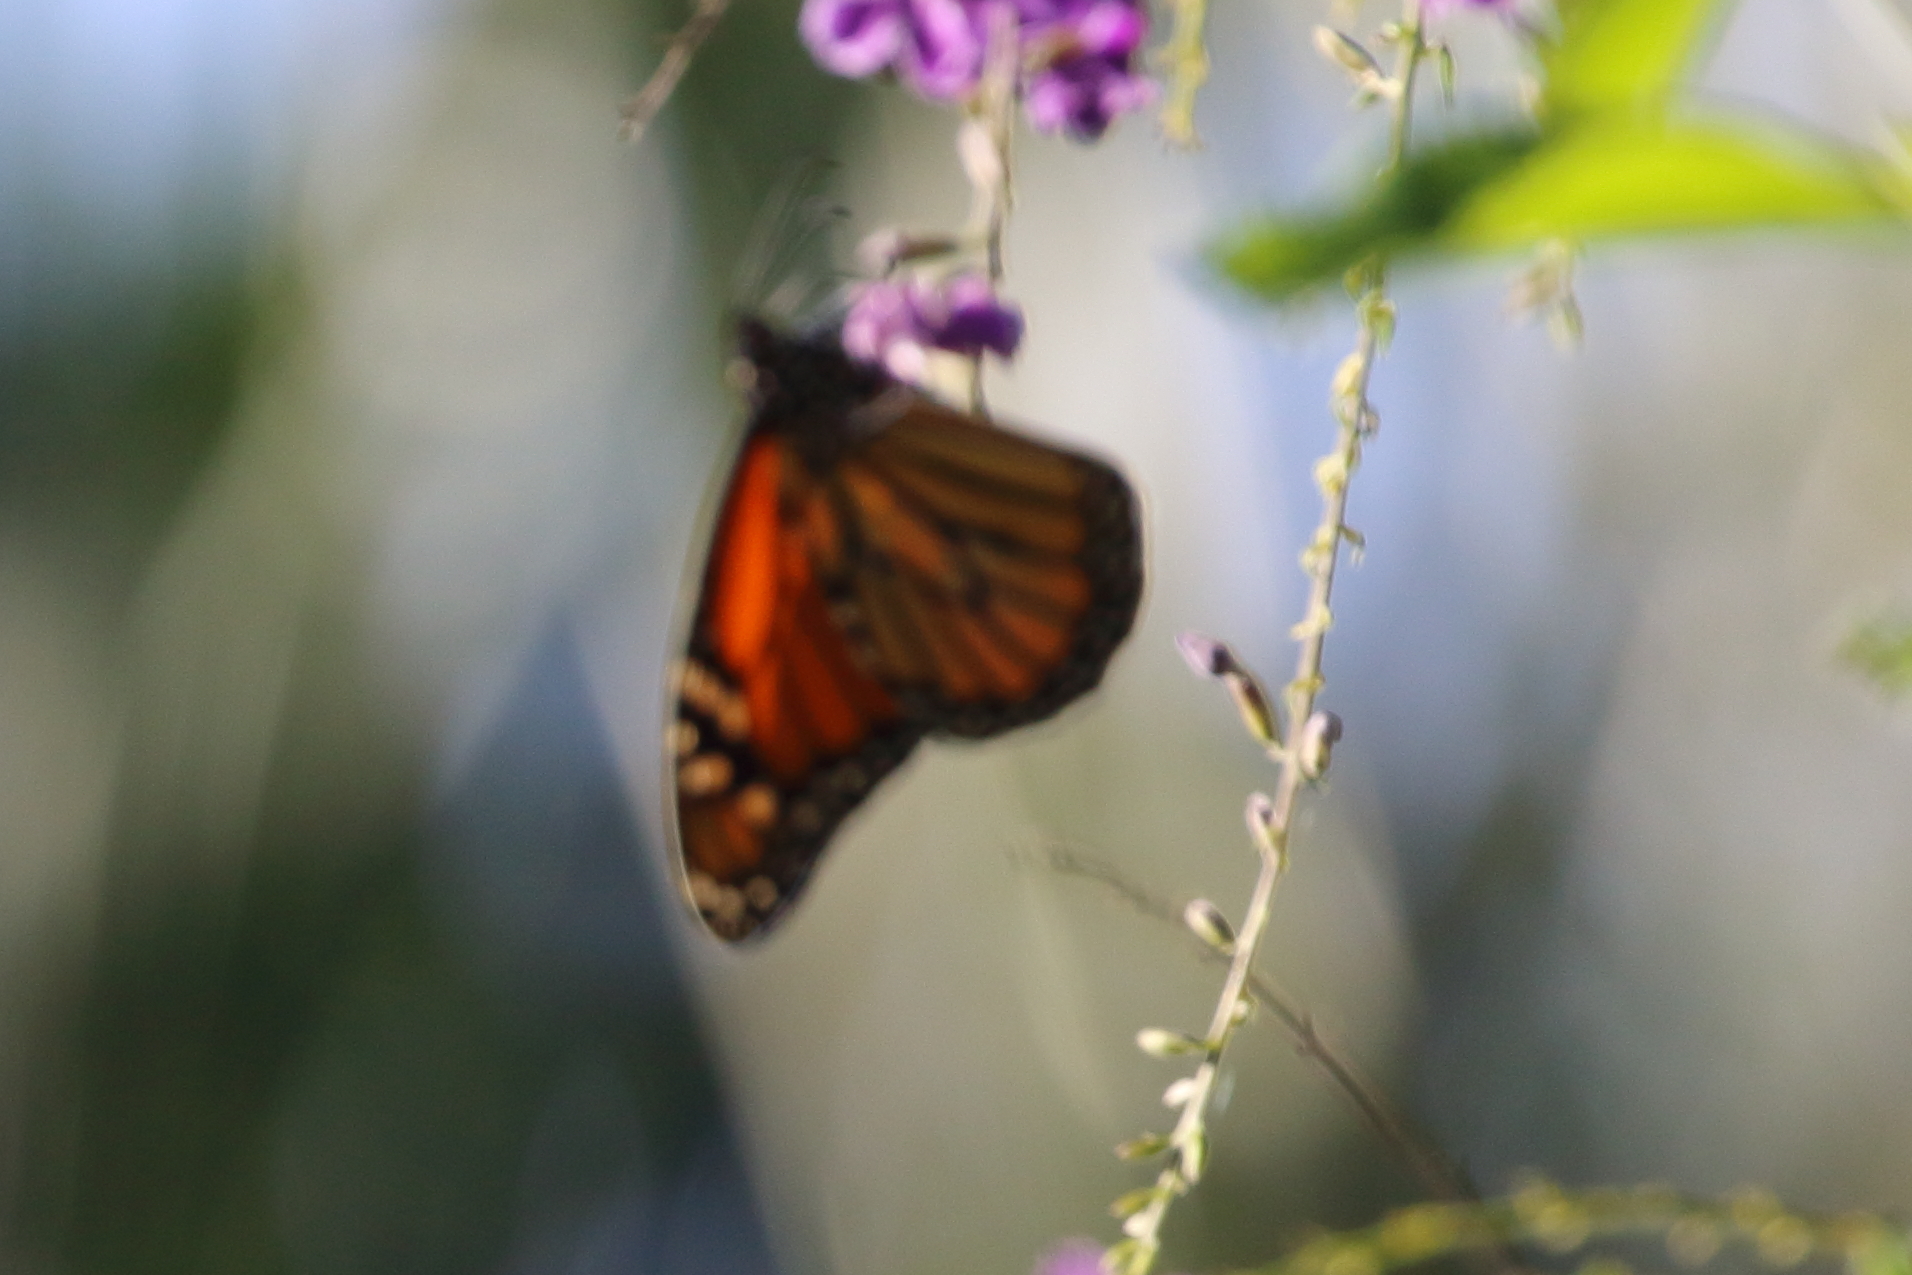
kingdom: Animalia
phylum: Arthropoda
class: Insecta
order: Lepidoptera
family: Nymphalidae
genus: Danaus
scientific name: Danaus plexippus
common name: Monarch
